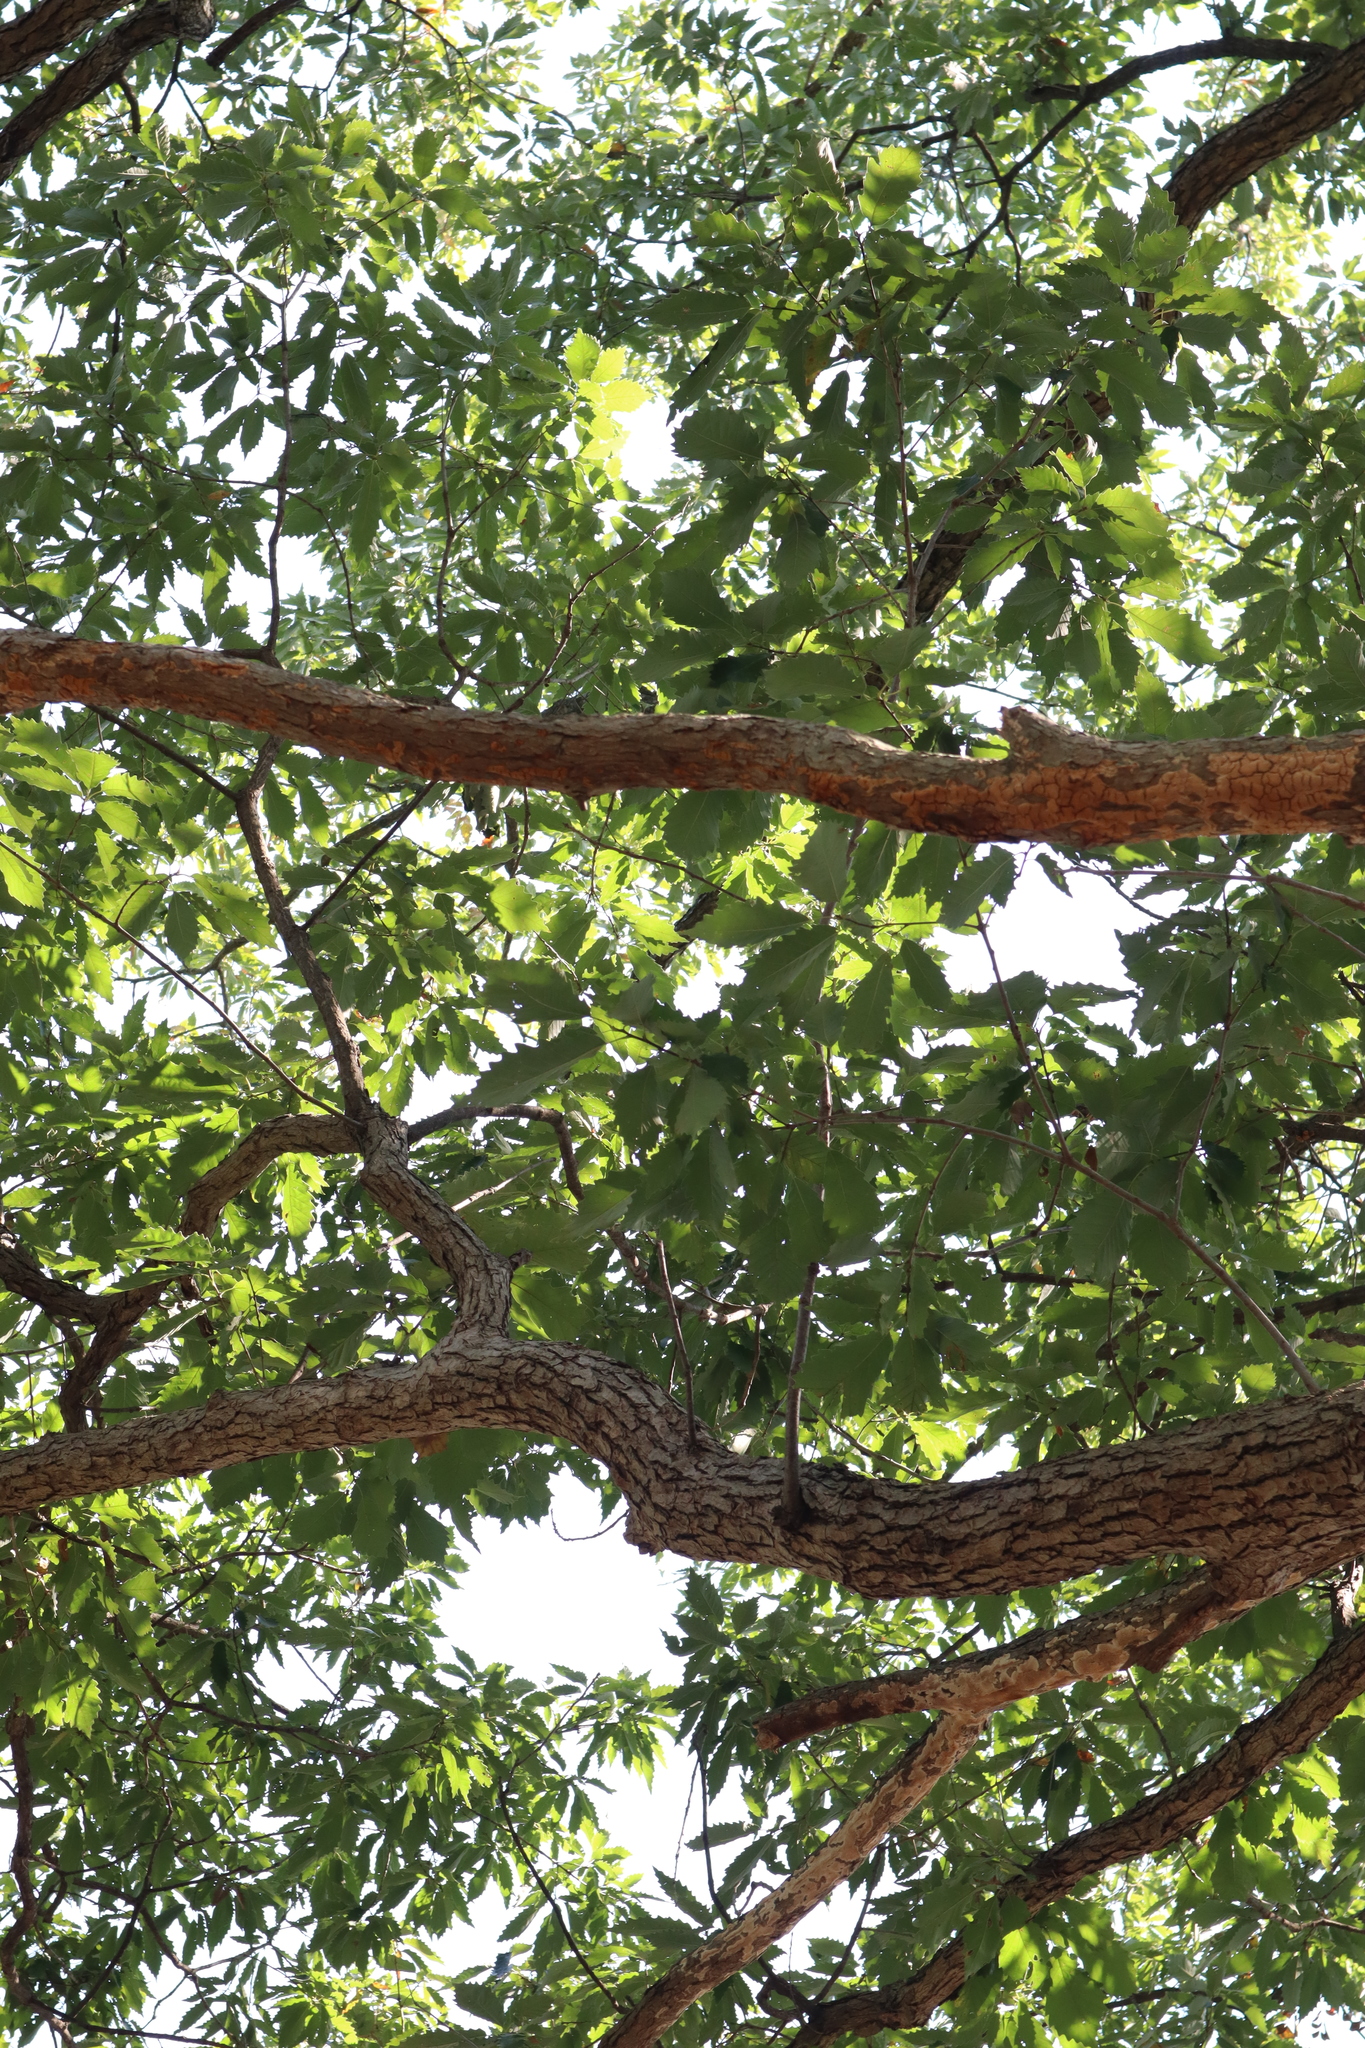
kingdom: Plantae
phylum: Tracheophyta
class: Magnoliopsida
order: Fagales
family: Fagaceae
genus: Quercus
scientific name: Quercus muehlenbergii
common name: Chinkapin oak
